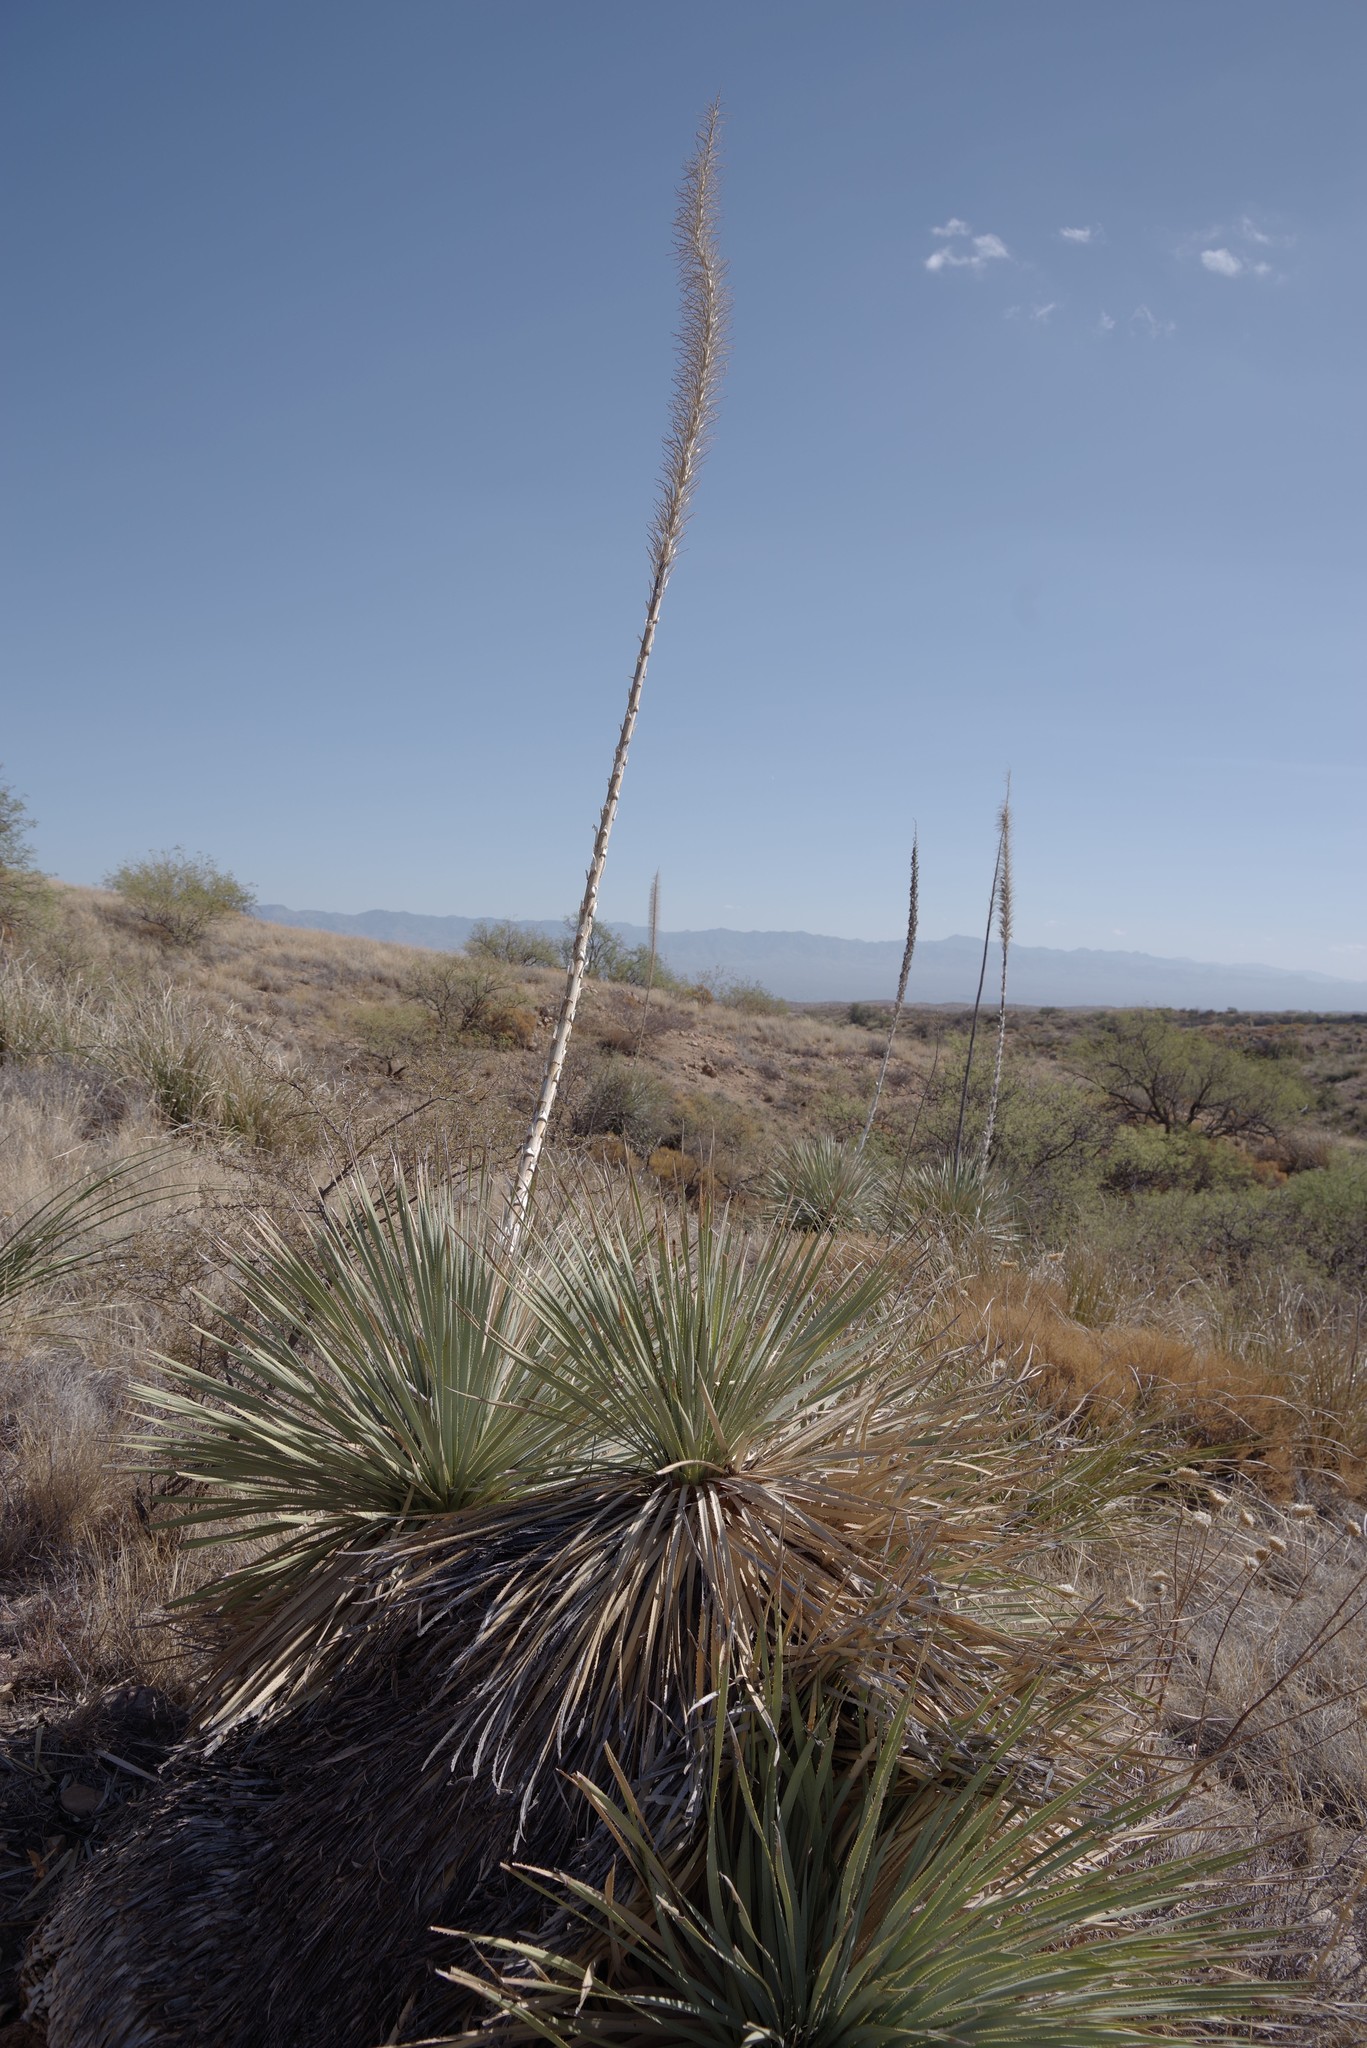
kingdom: Plantae
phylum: Tracheophyta
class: Liliopsida
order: Asparagales
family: Asparagaceae
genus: Dasylirion
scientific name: Dasylirion wheeleri
